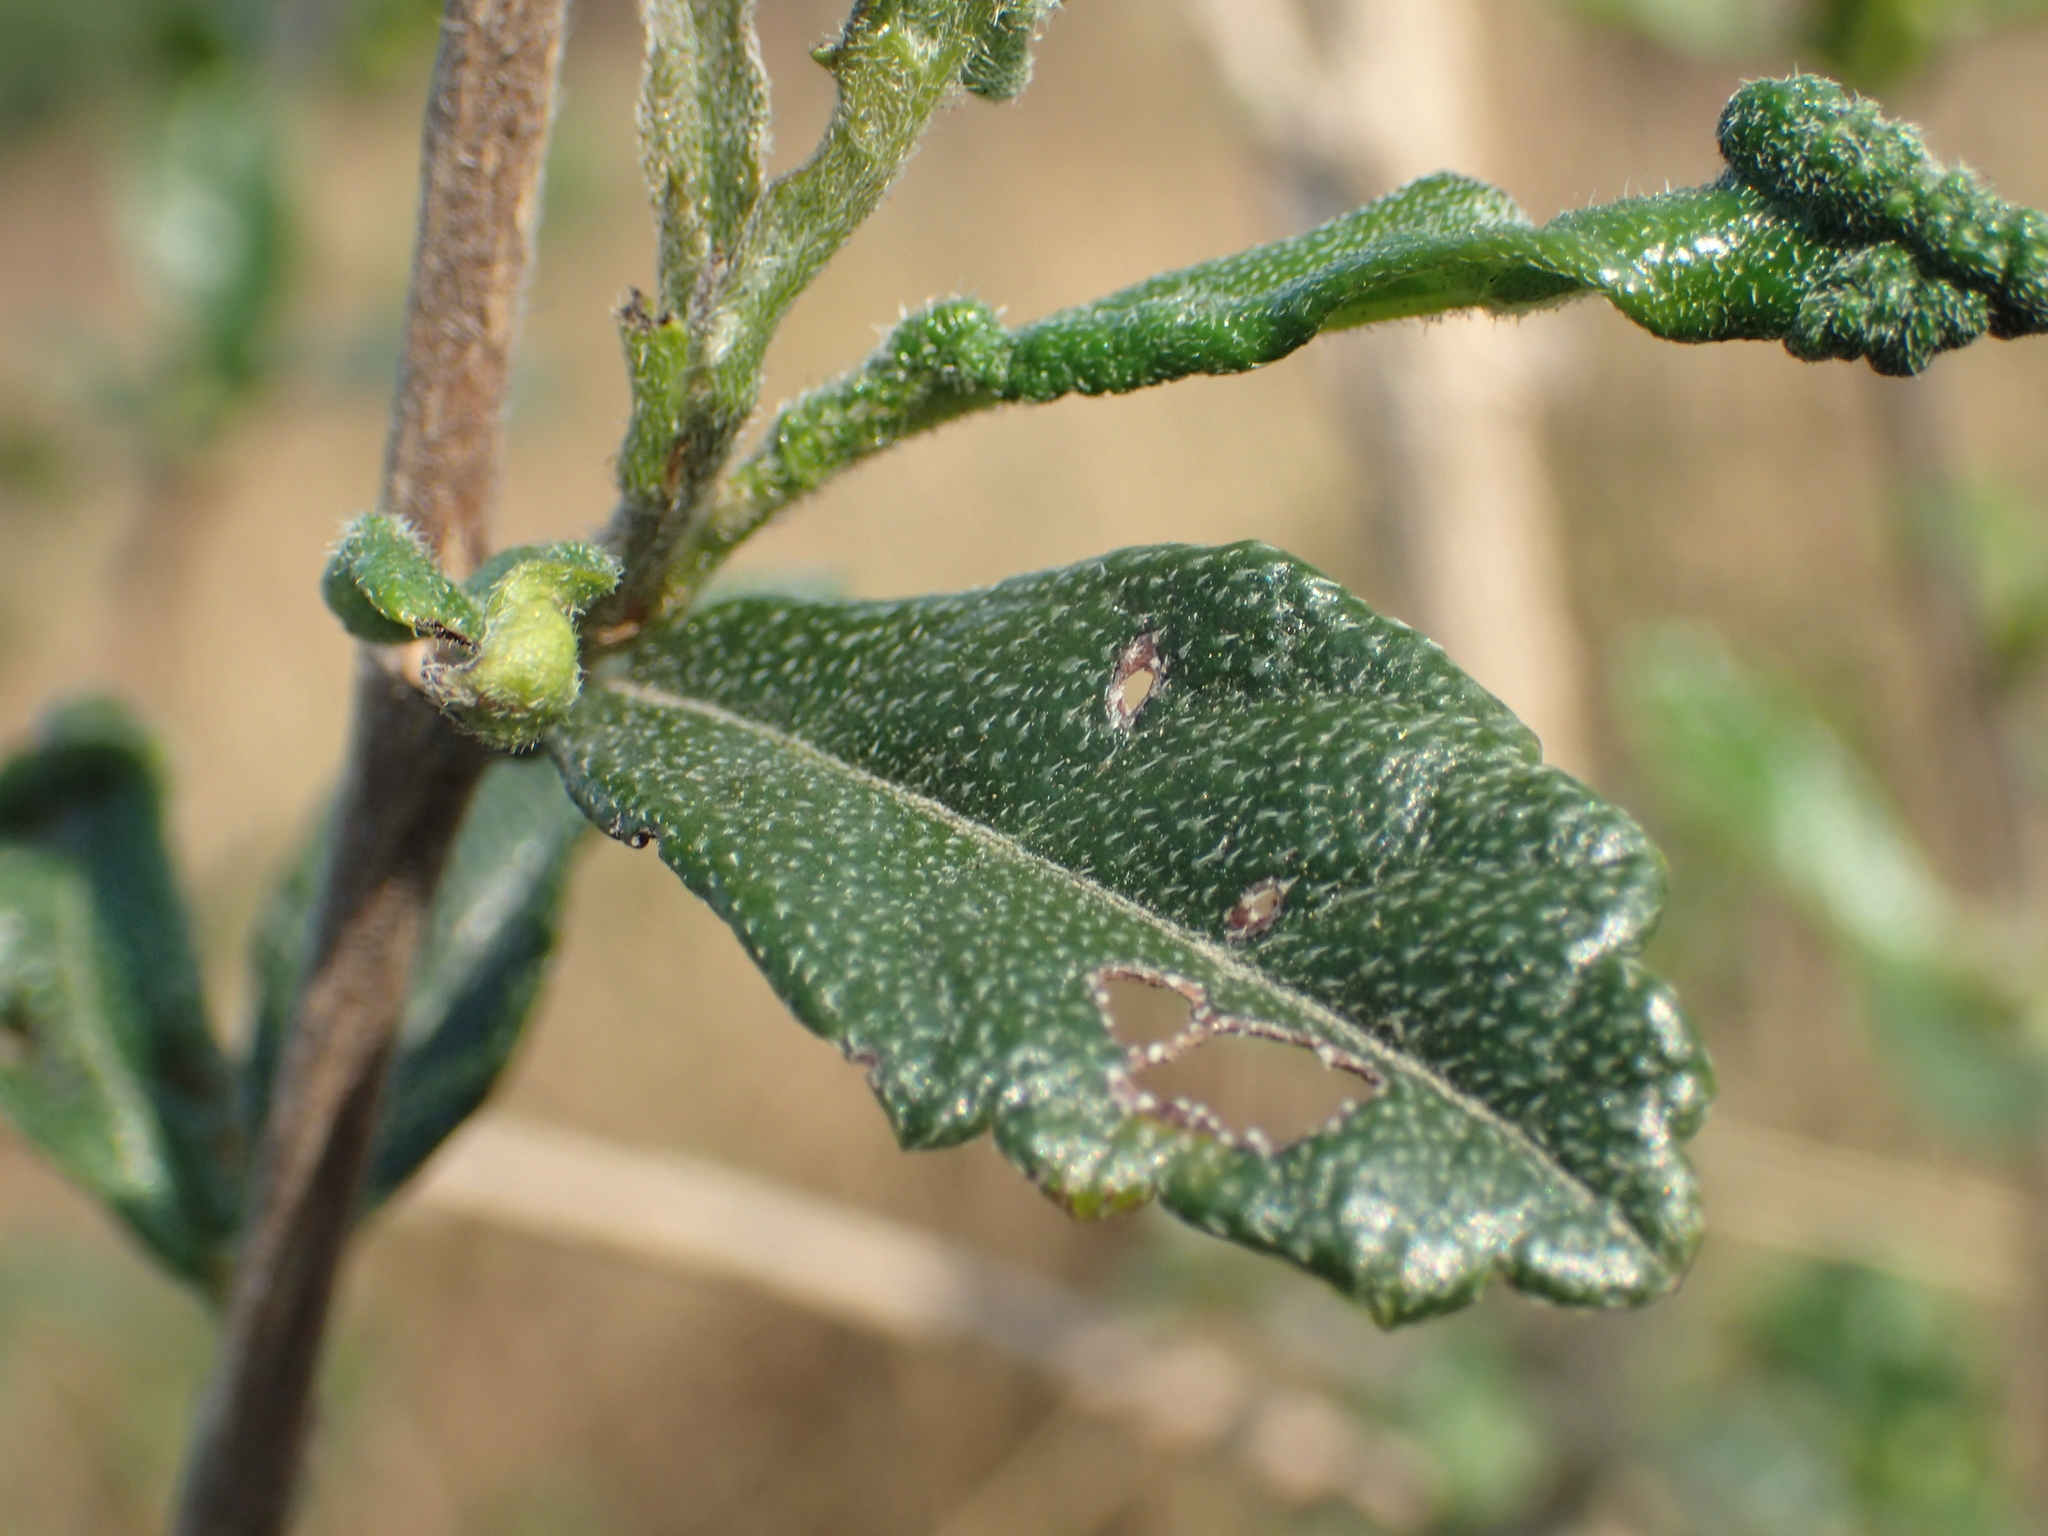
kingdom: Plantae
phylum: Tracheophyta
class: Magnoliopsida
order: Boraginales
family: Ehretiaceae
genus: Ehretia
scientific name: Ehretia microphylla
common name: Fukien-tea
